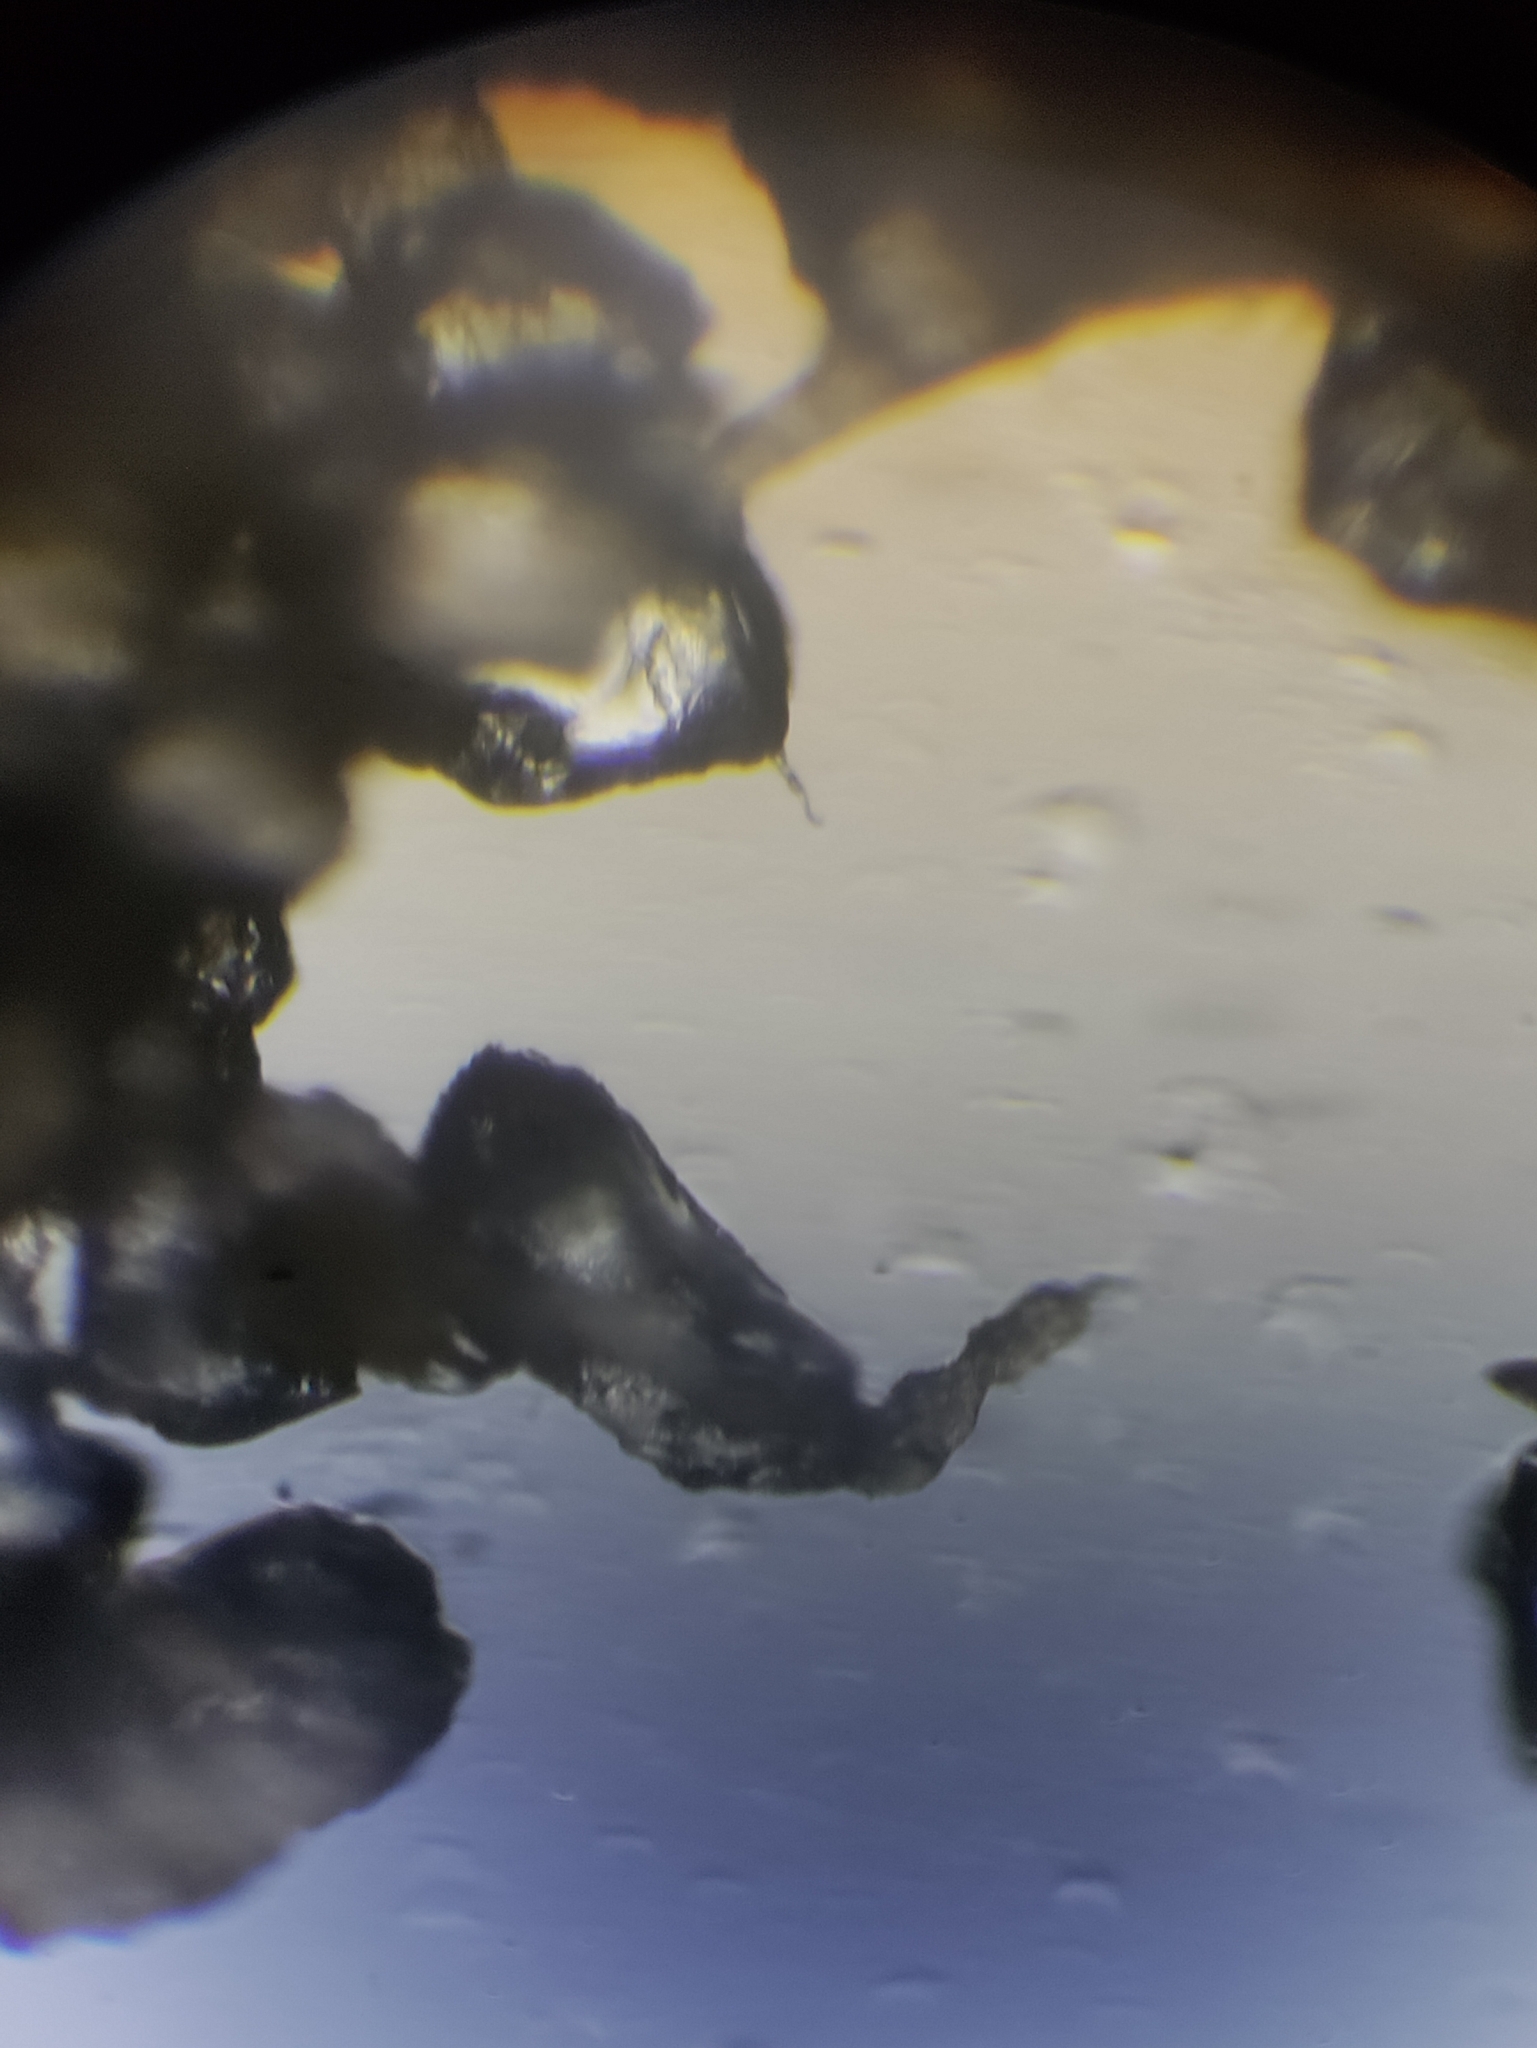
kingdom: Fungi
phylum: Basidiomycota
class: Agaricomycetes
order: Agaricales
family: Hydnangiaceae
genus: Laccaria
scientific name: Laccaria trullissata
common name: Sandy laccaria
